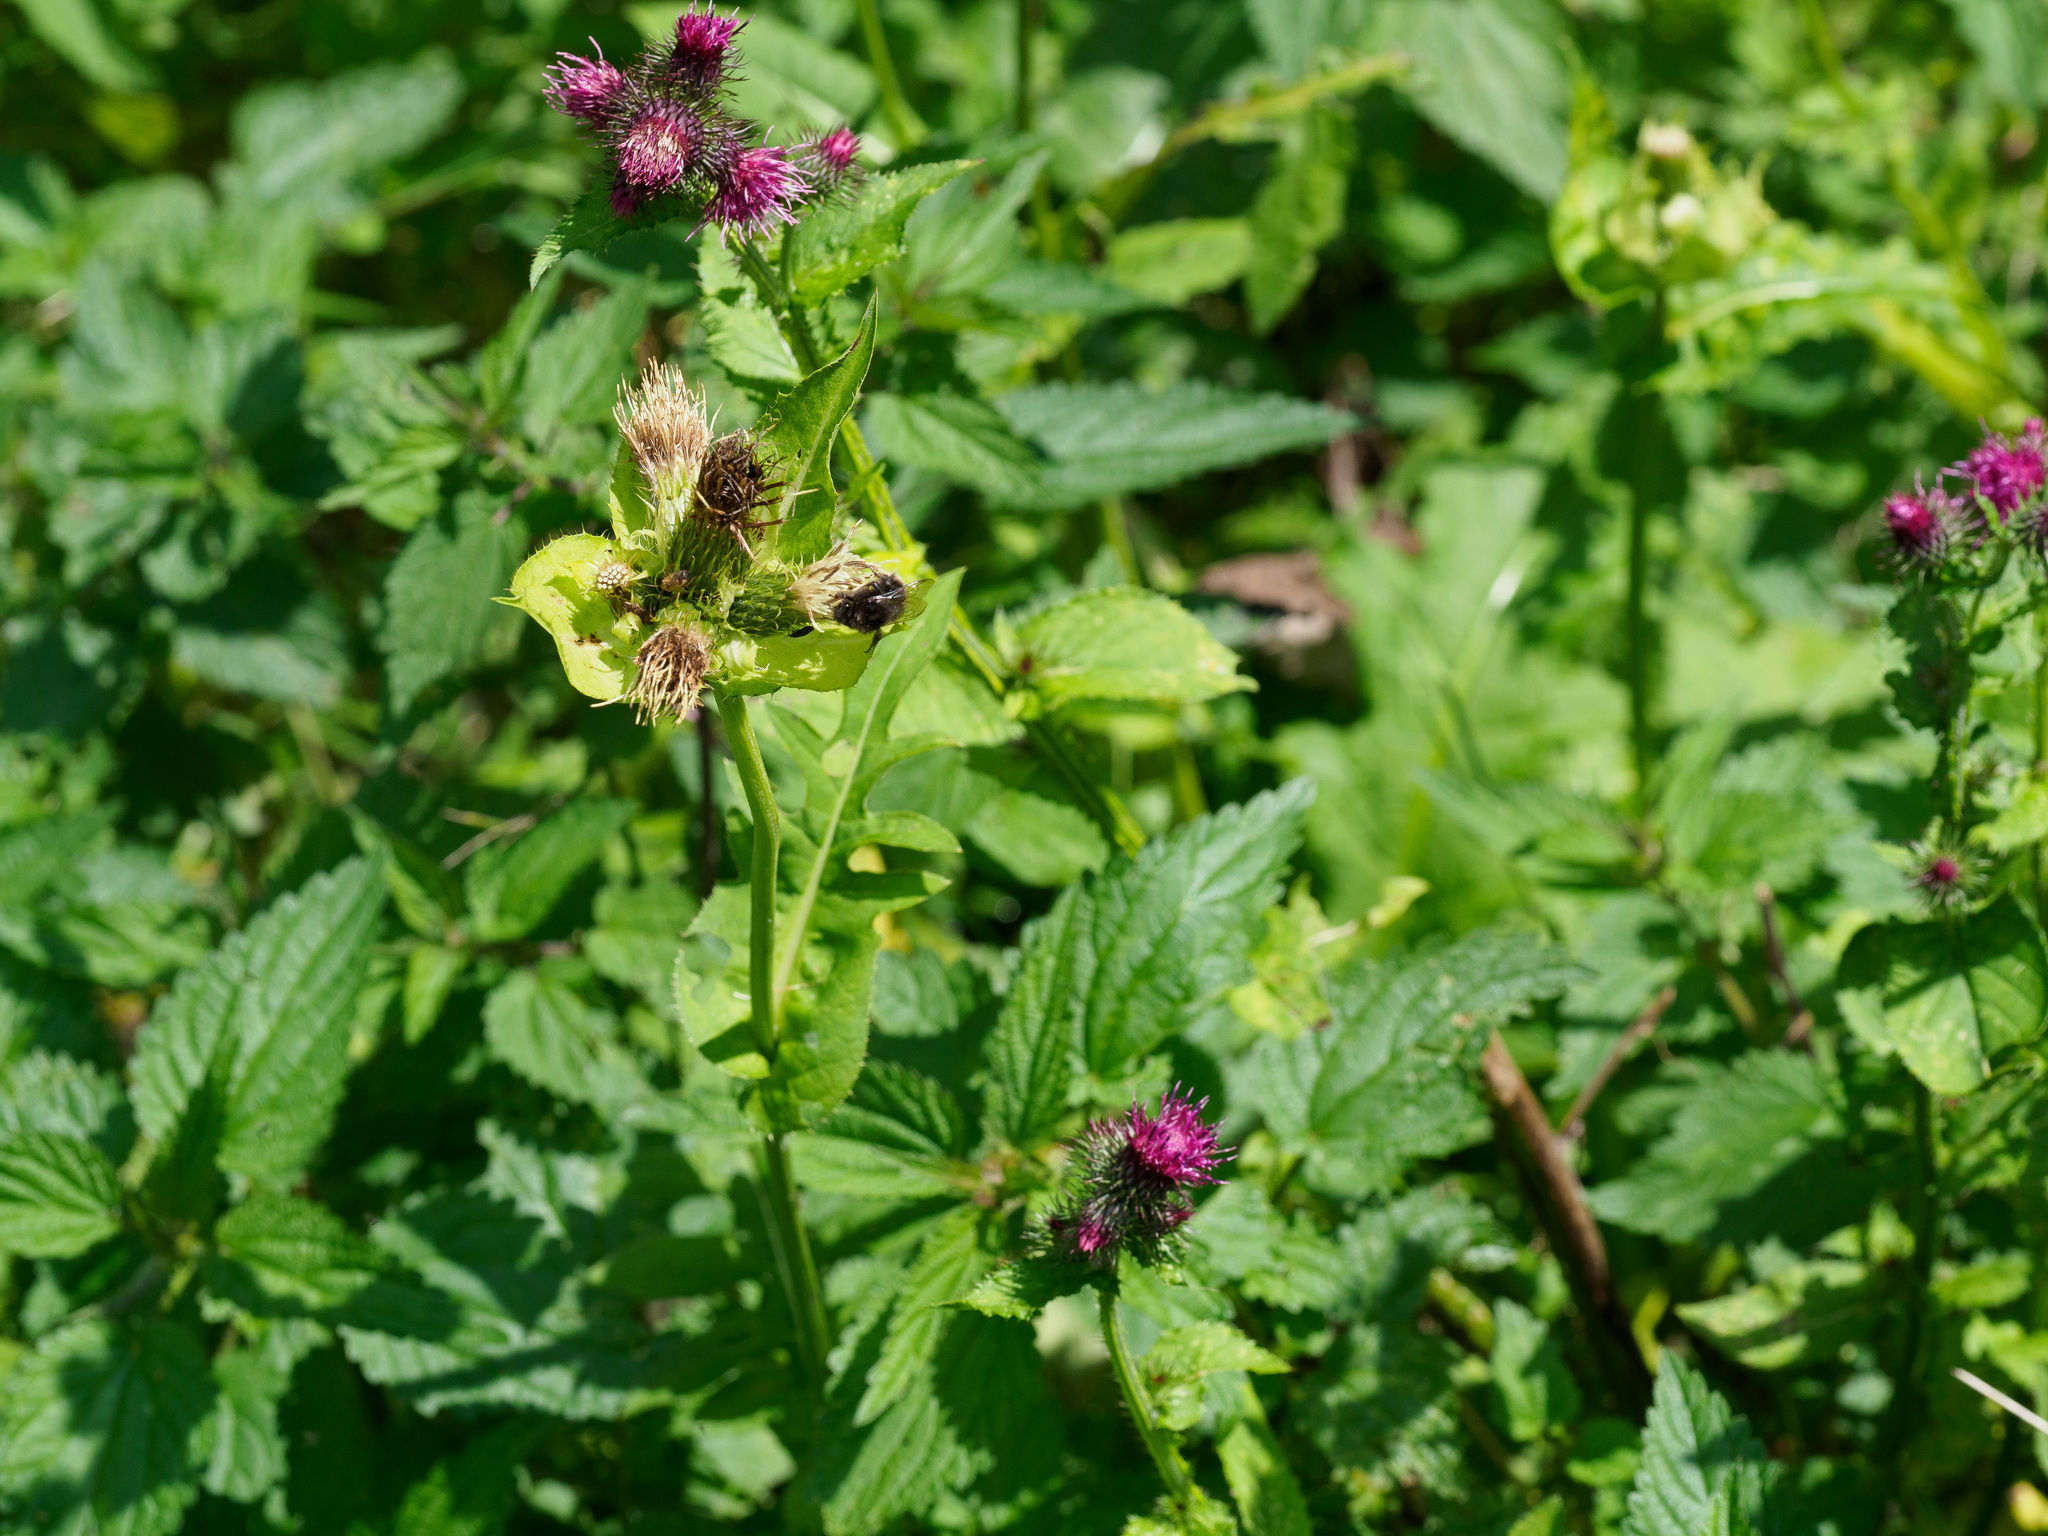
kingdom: Plantae
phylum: Tracheophyta
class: Magnoliopsida
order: Asterales
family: Asteraceae
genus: Carduus
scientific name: Carduus personata
